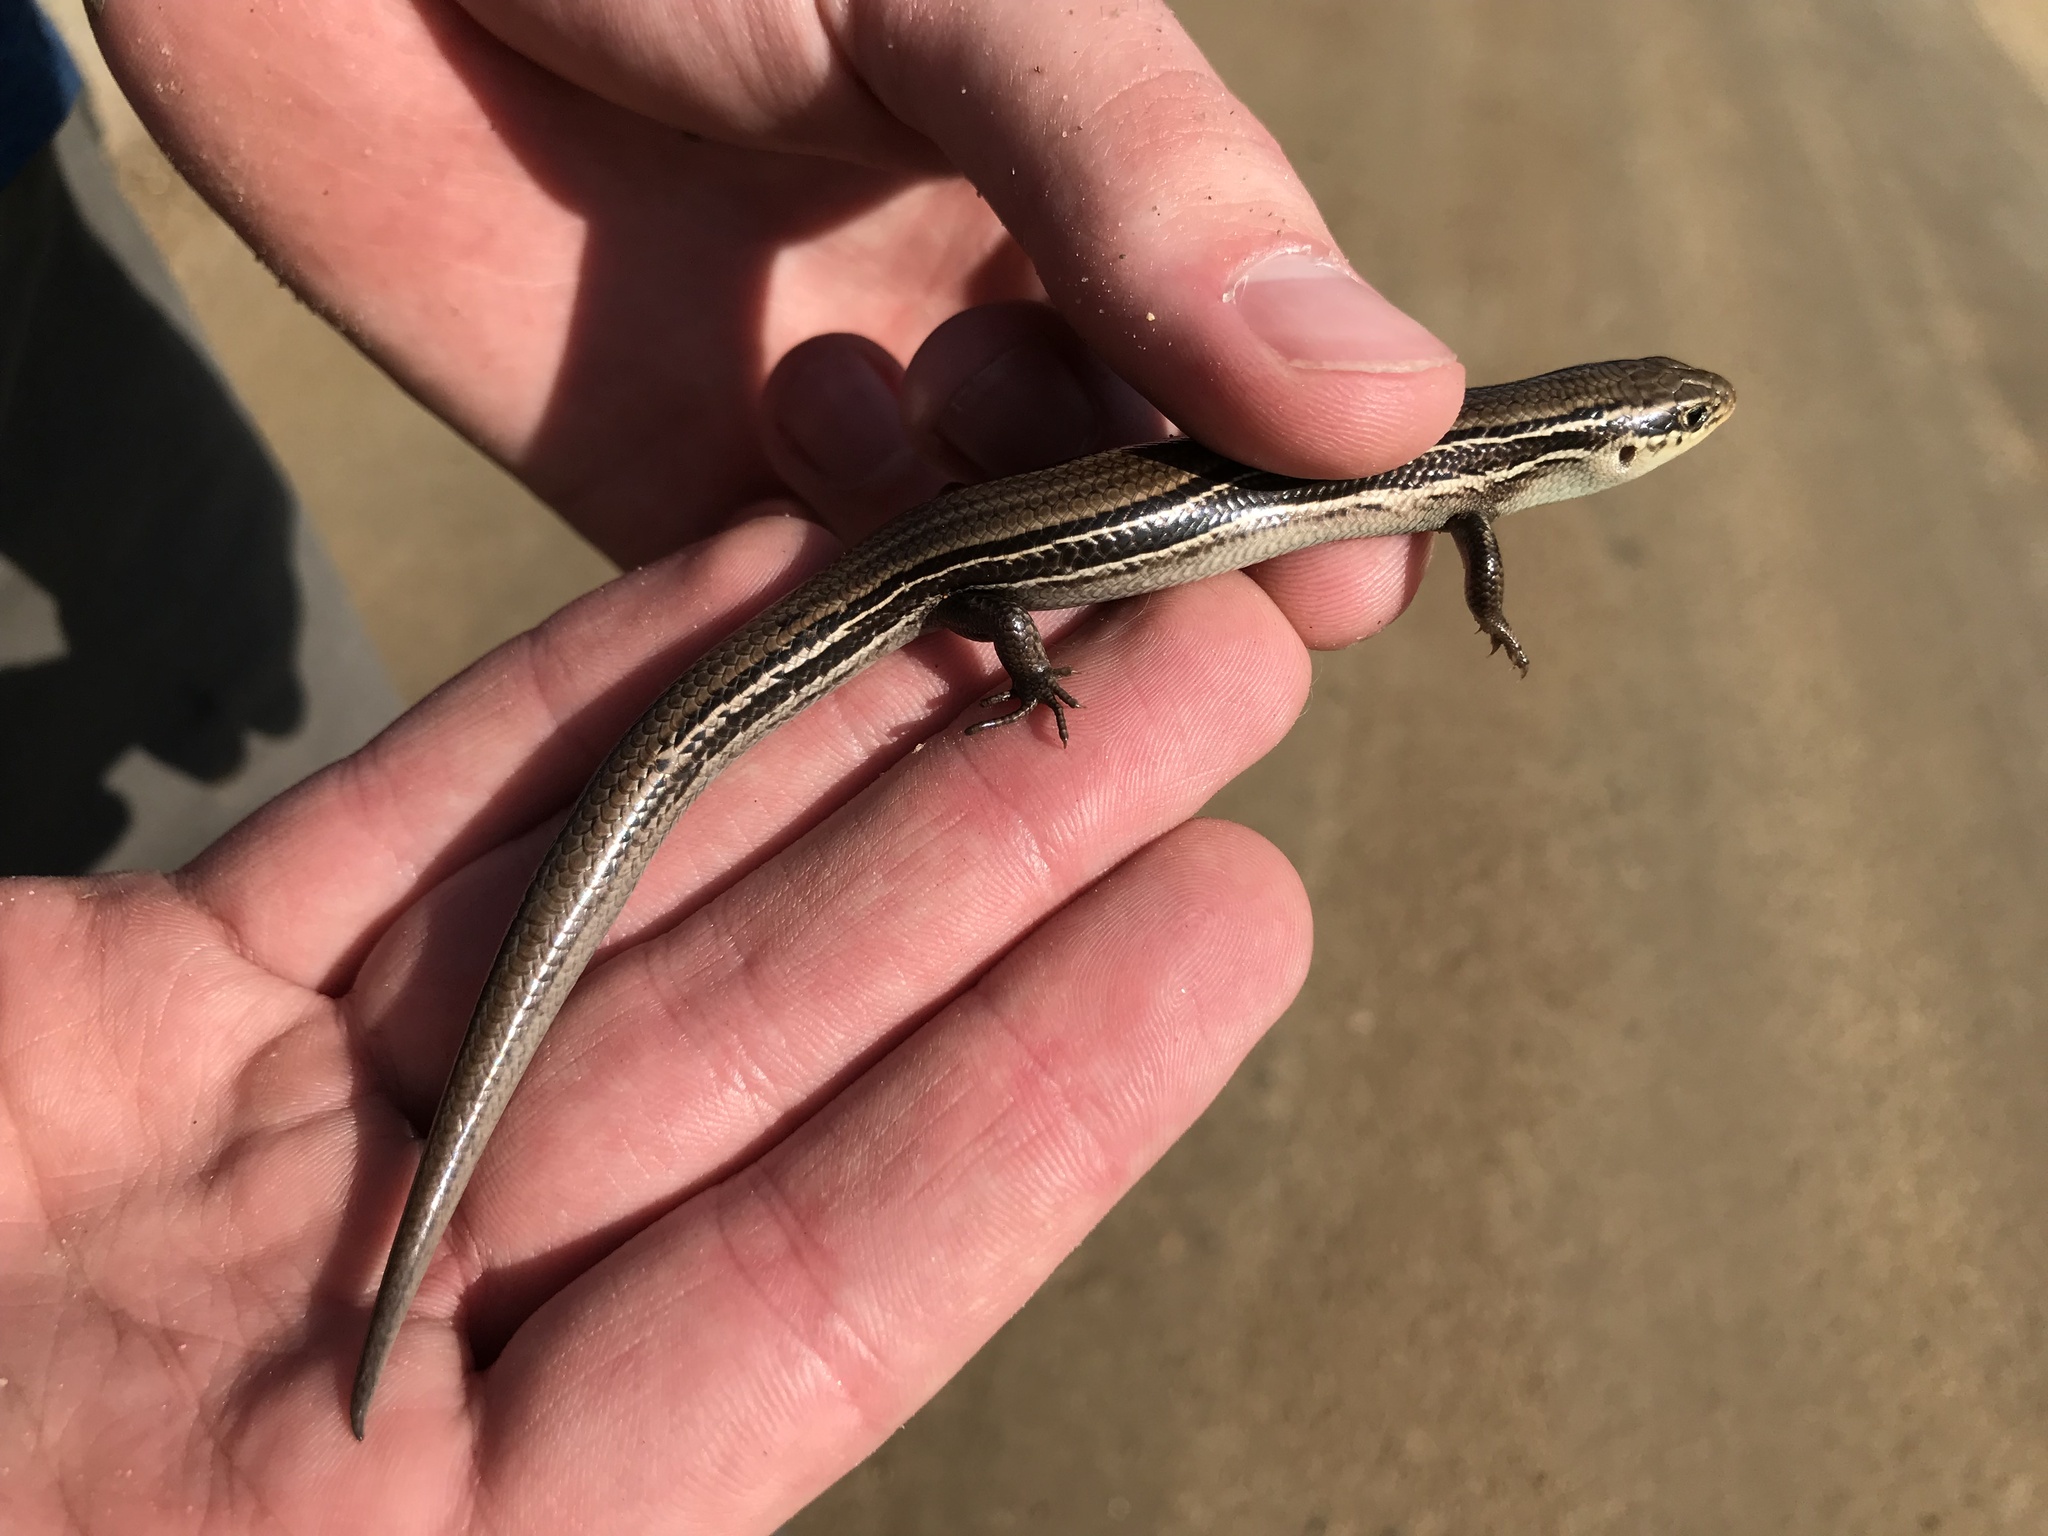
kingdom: Animalia
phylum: Chordata
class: Squamata
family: Scincidae
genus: Plestiodon
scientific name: Plestiodon septentrionalis
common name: Northern prairie skink
